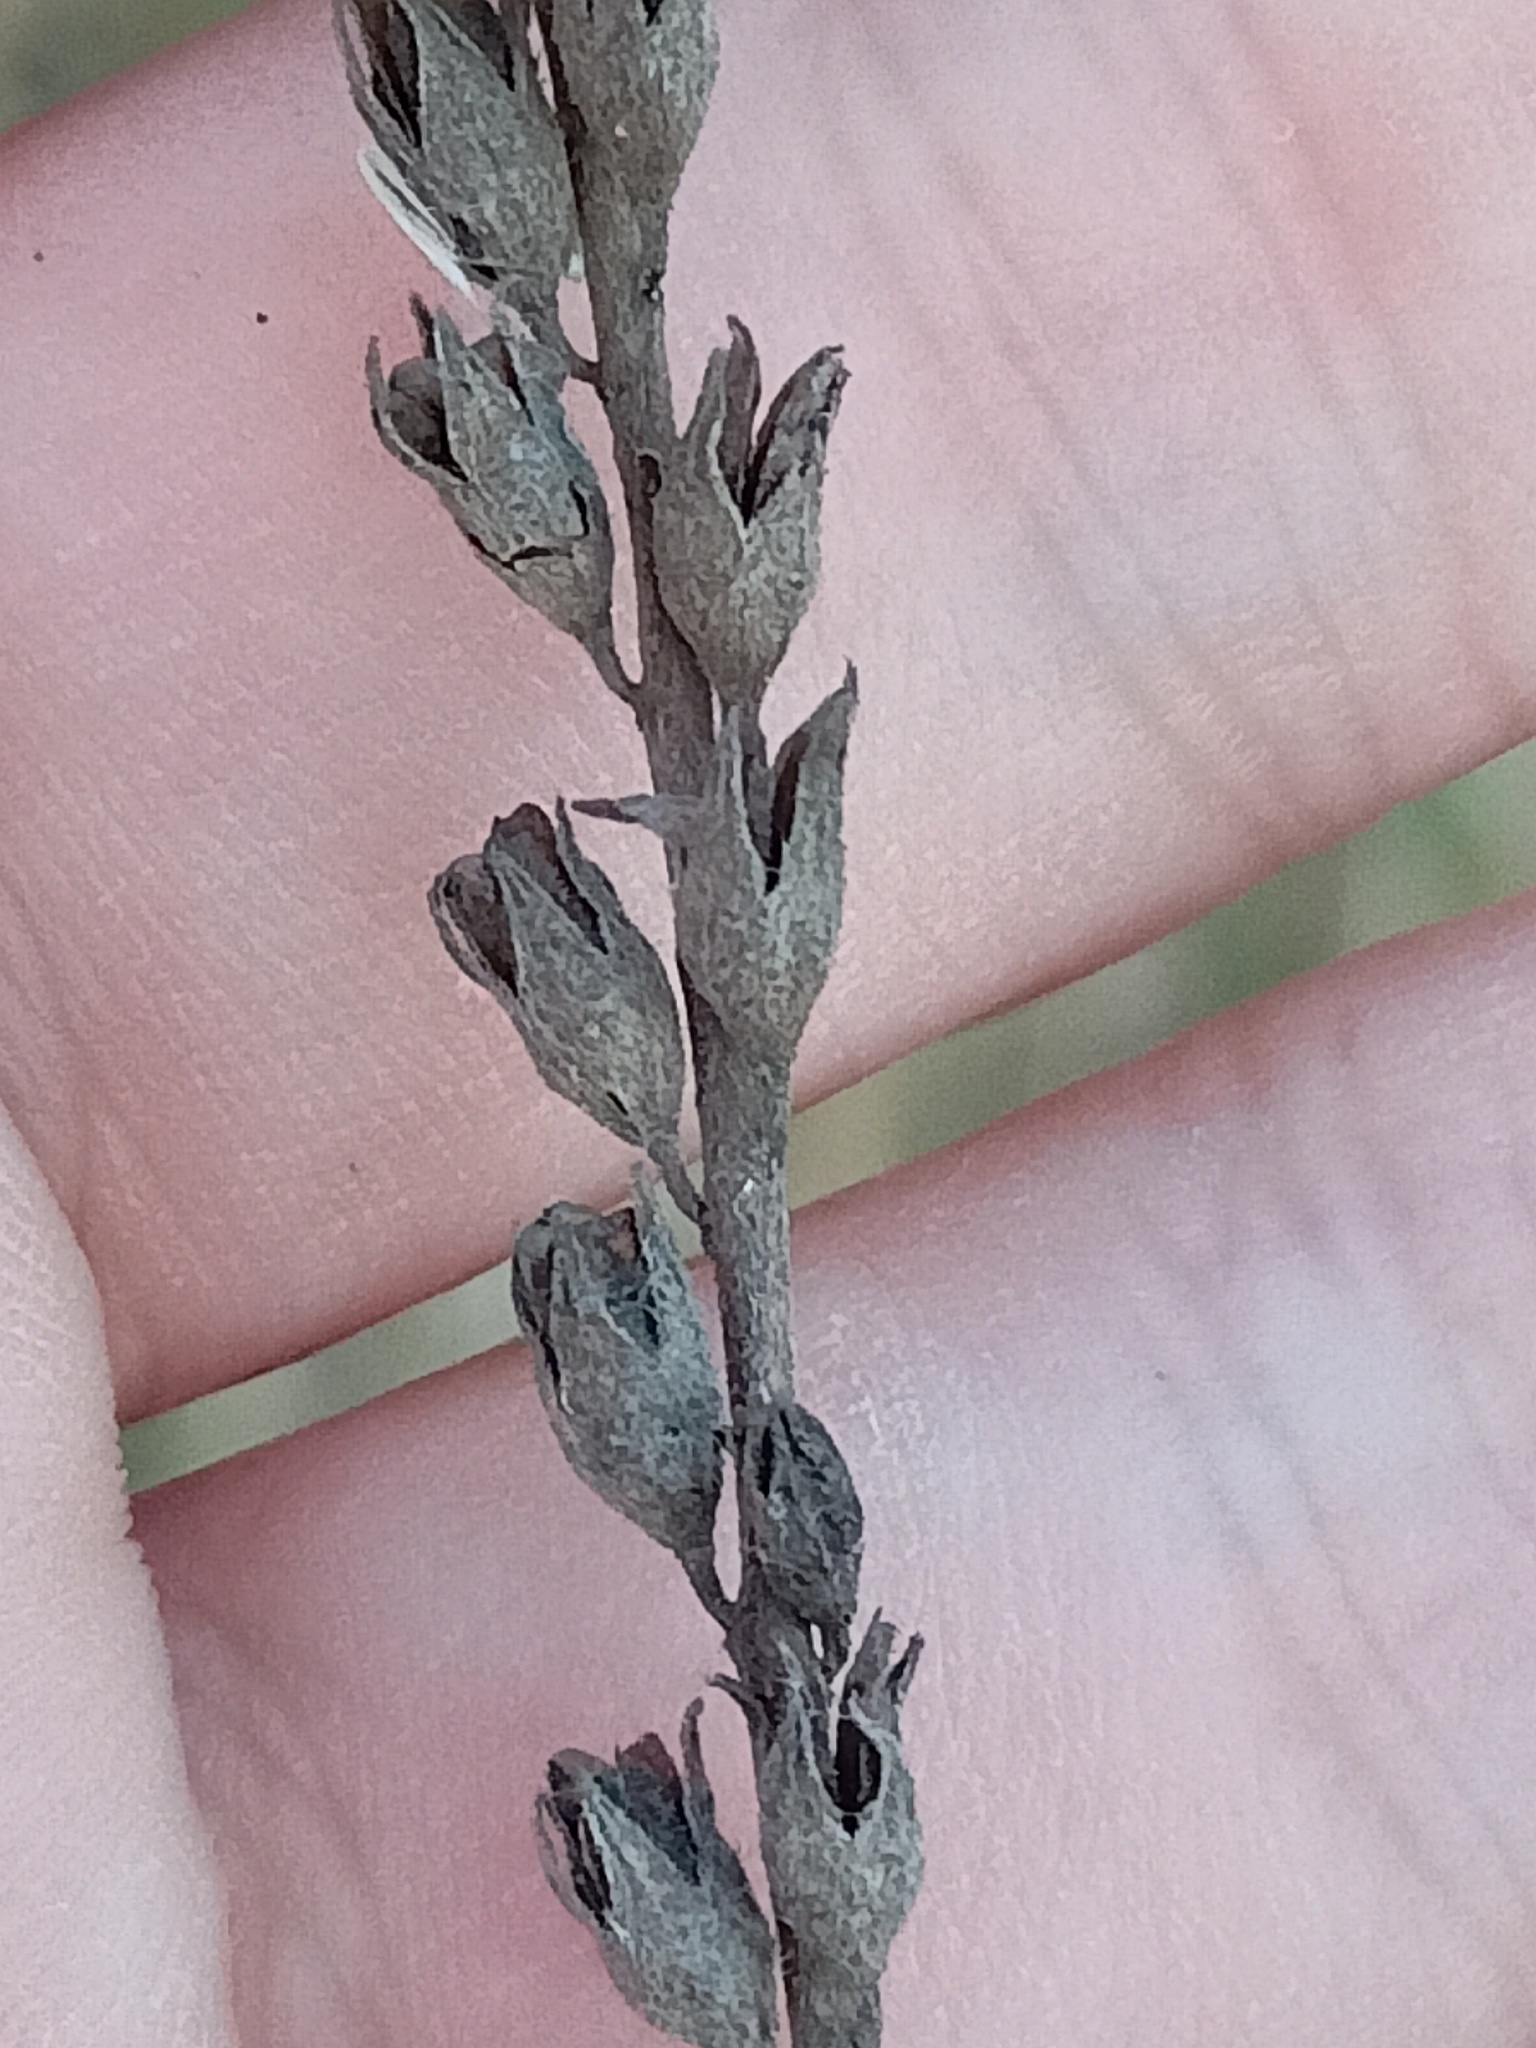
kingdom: Plantae
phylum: Tracheophyta
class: Magnoliopsida
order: Lamiales
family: Orobanchaceae
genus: Odontites
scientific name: Odontites vulgaris
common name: Broomrape
